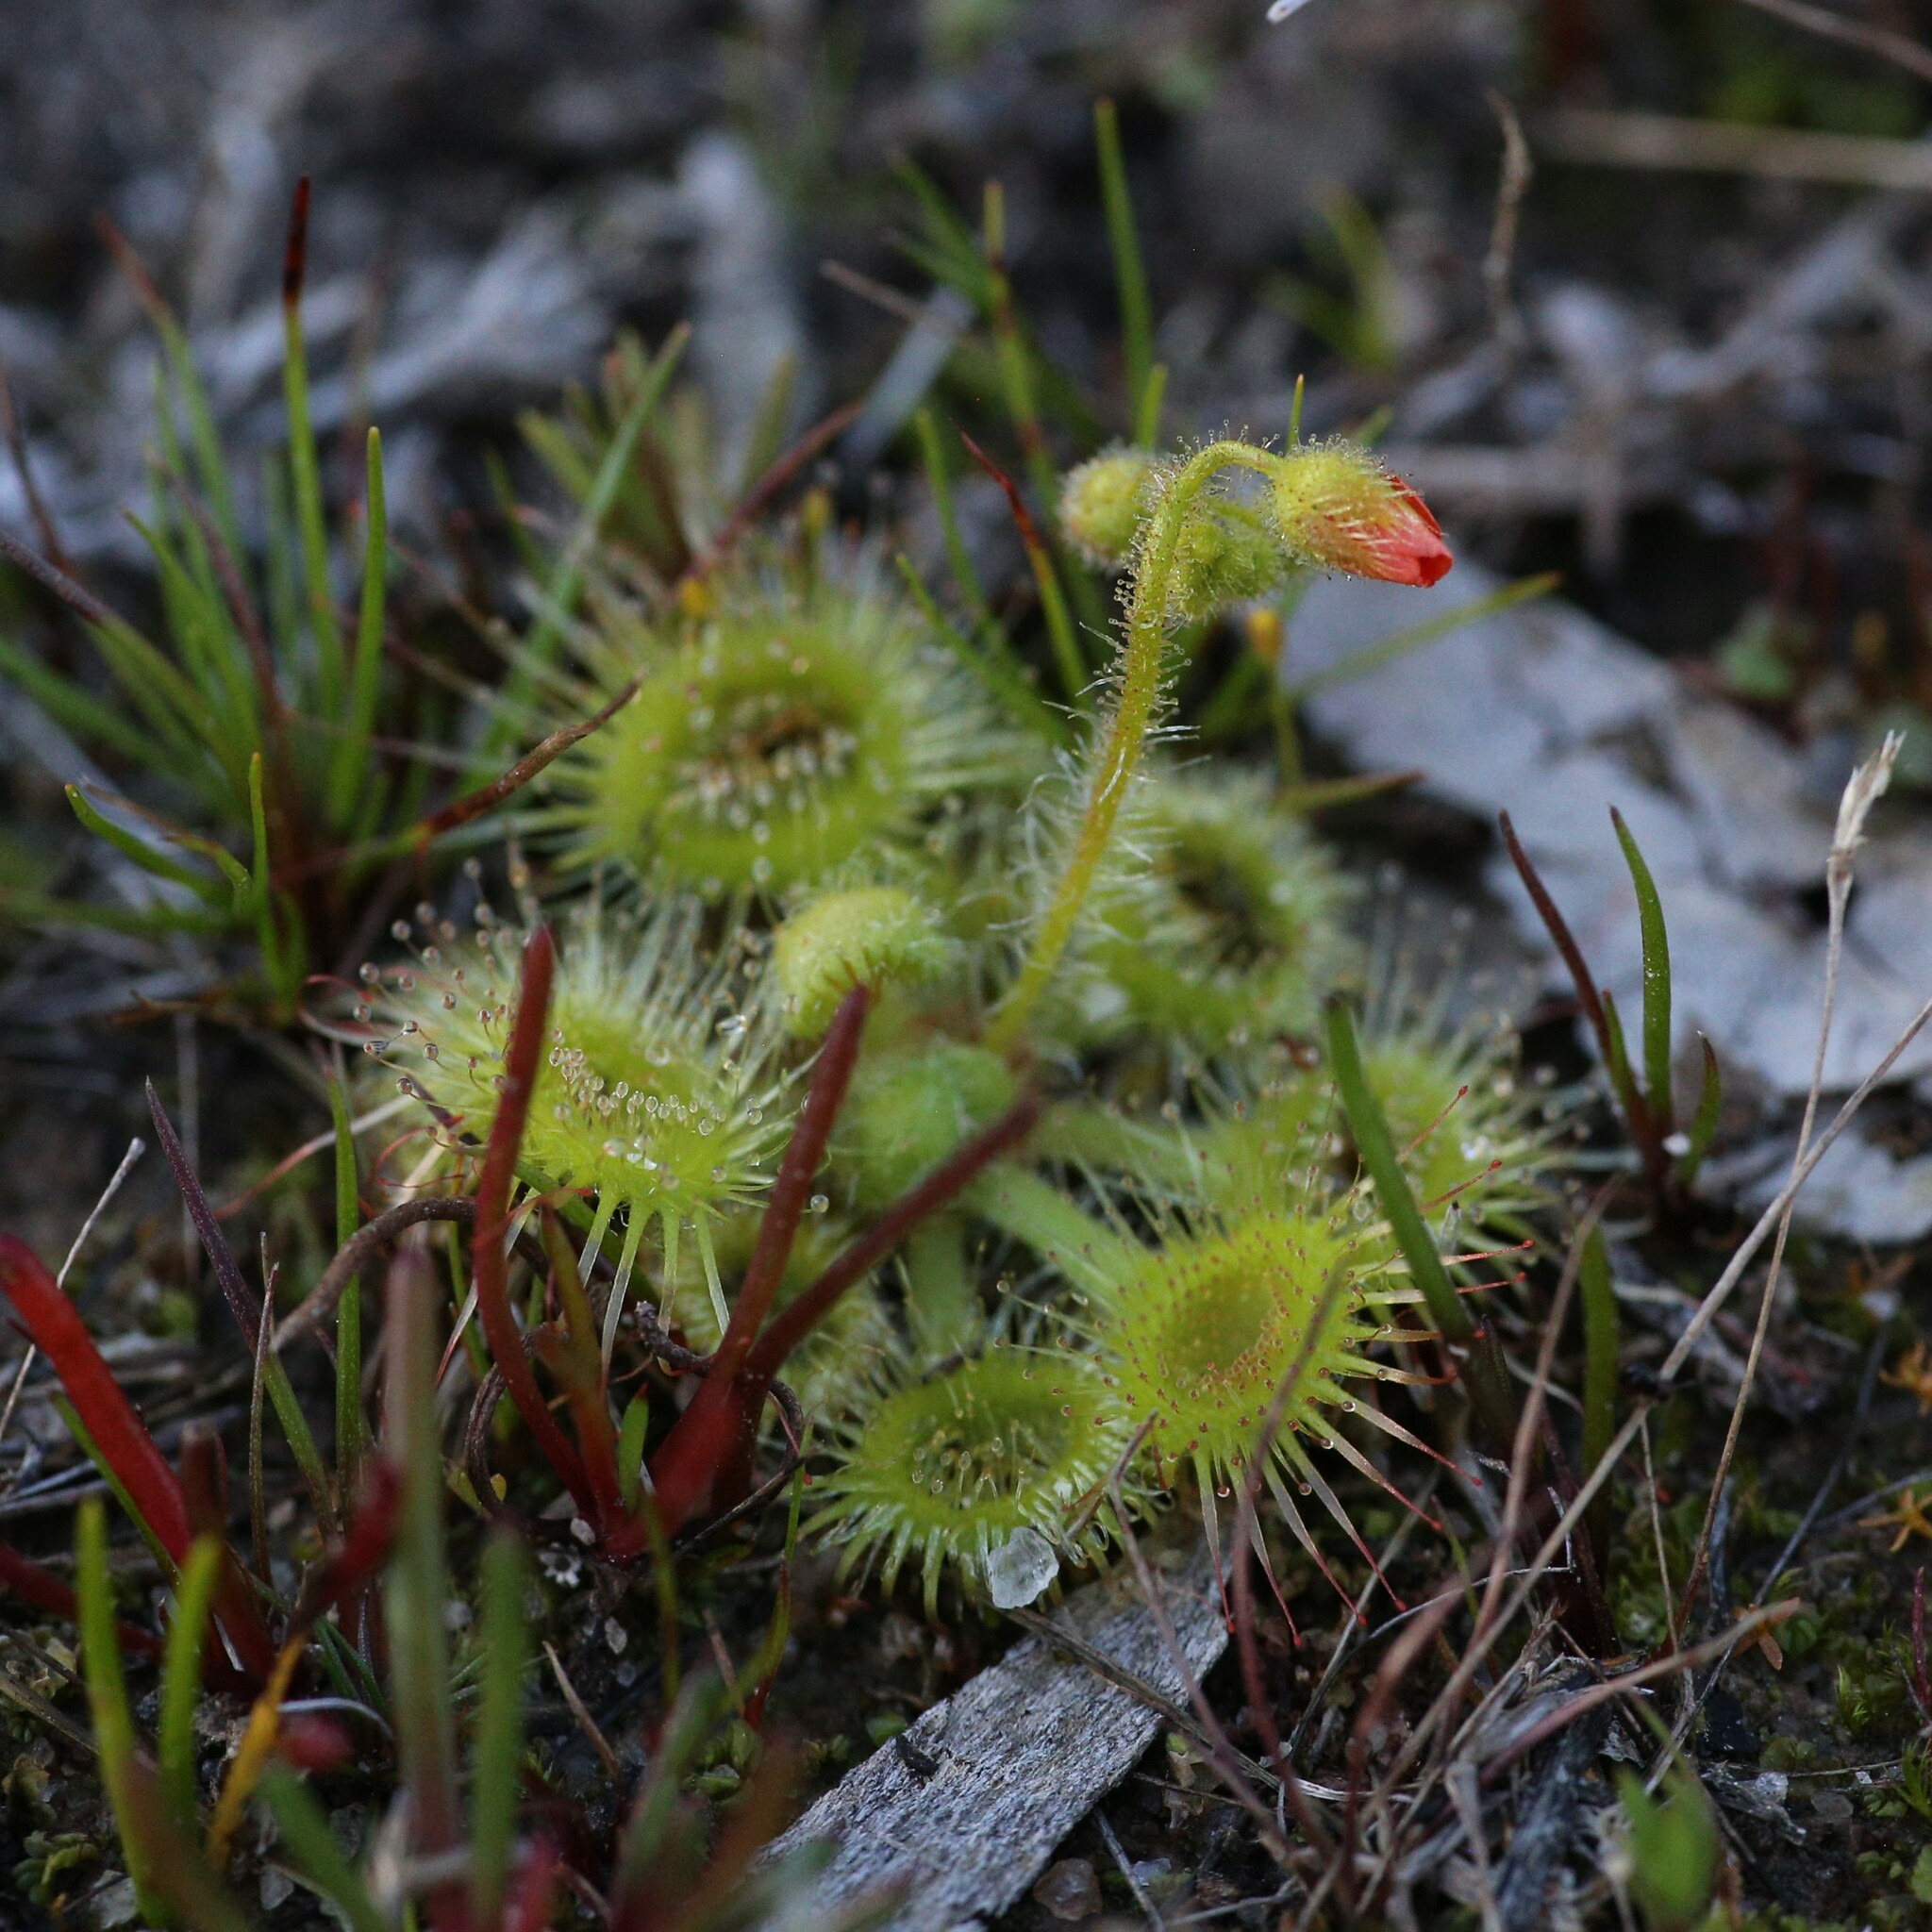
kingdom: Plantae
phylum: Tracheophyta
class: Magnoliopsida
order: Caryophyllales
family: Droseraceae
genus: Drosera
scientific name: Drosera glanduligera
